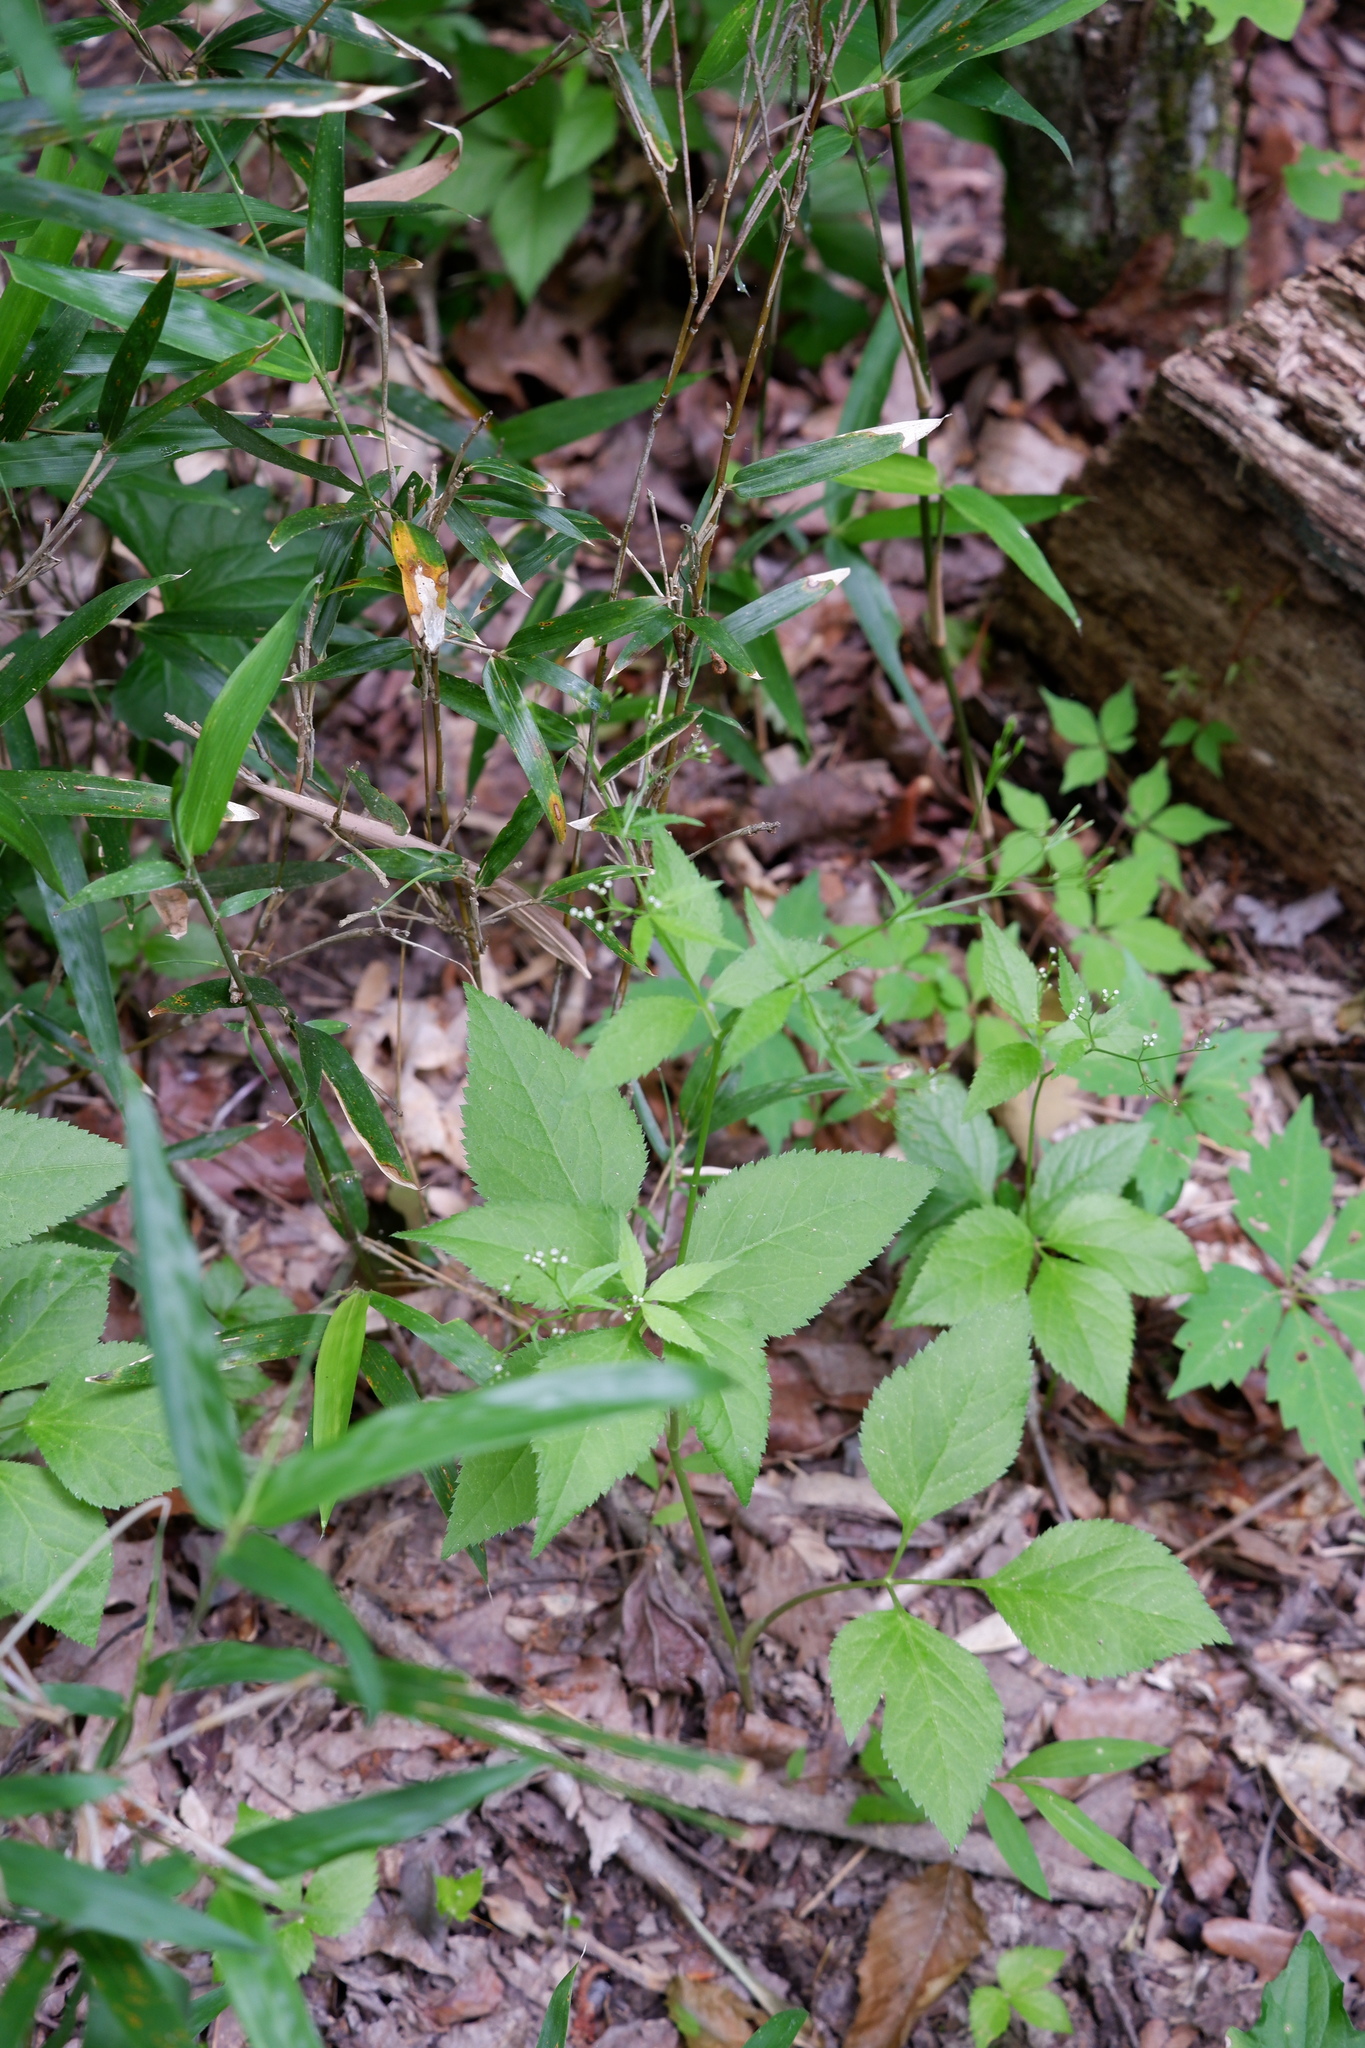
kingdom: Plantae
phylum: Tracheophyta
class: Magnoliopsida
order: Apiales
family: Apiaceae
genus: Cryptotaenia
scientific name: Cryptotaenia canadensis
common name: Honewort
